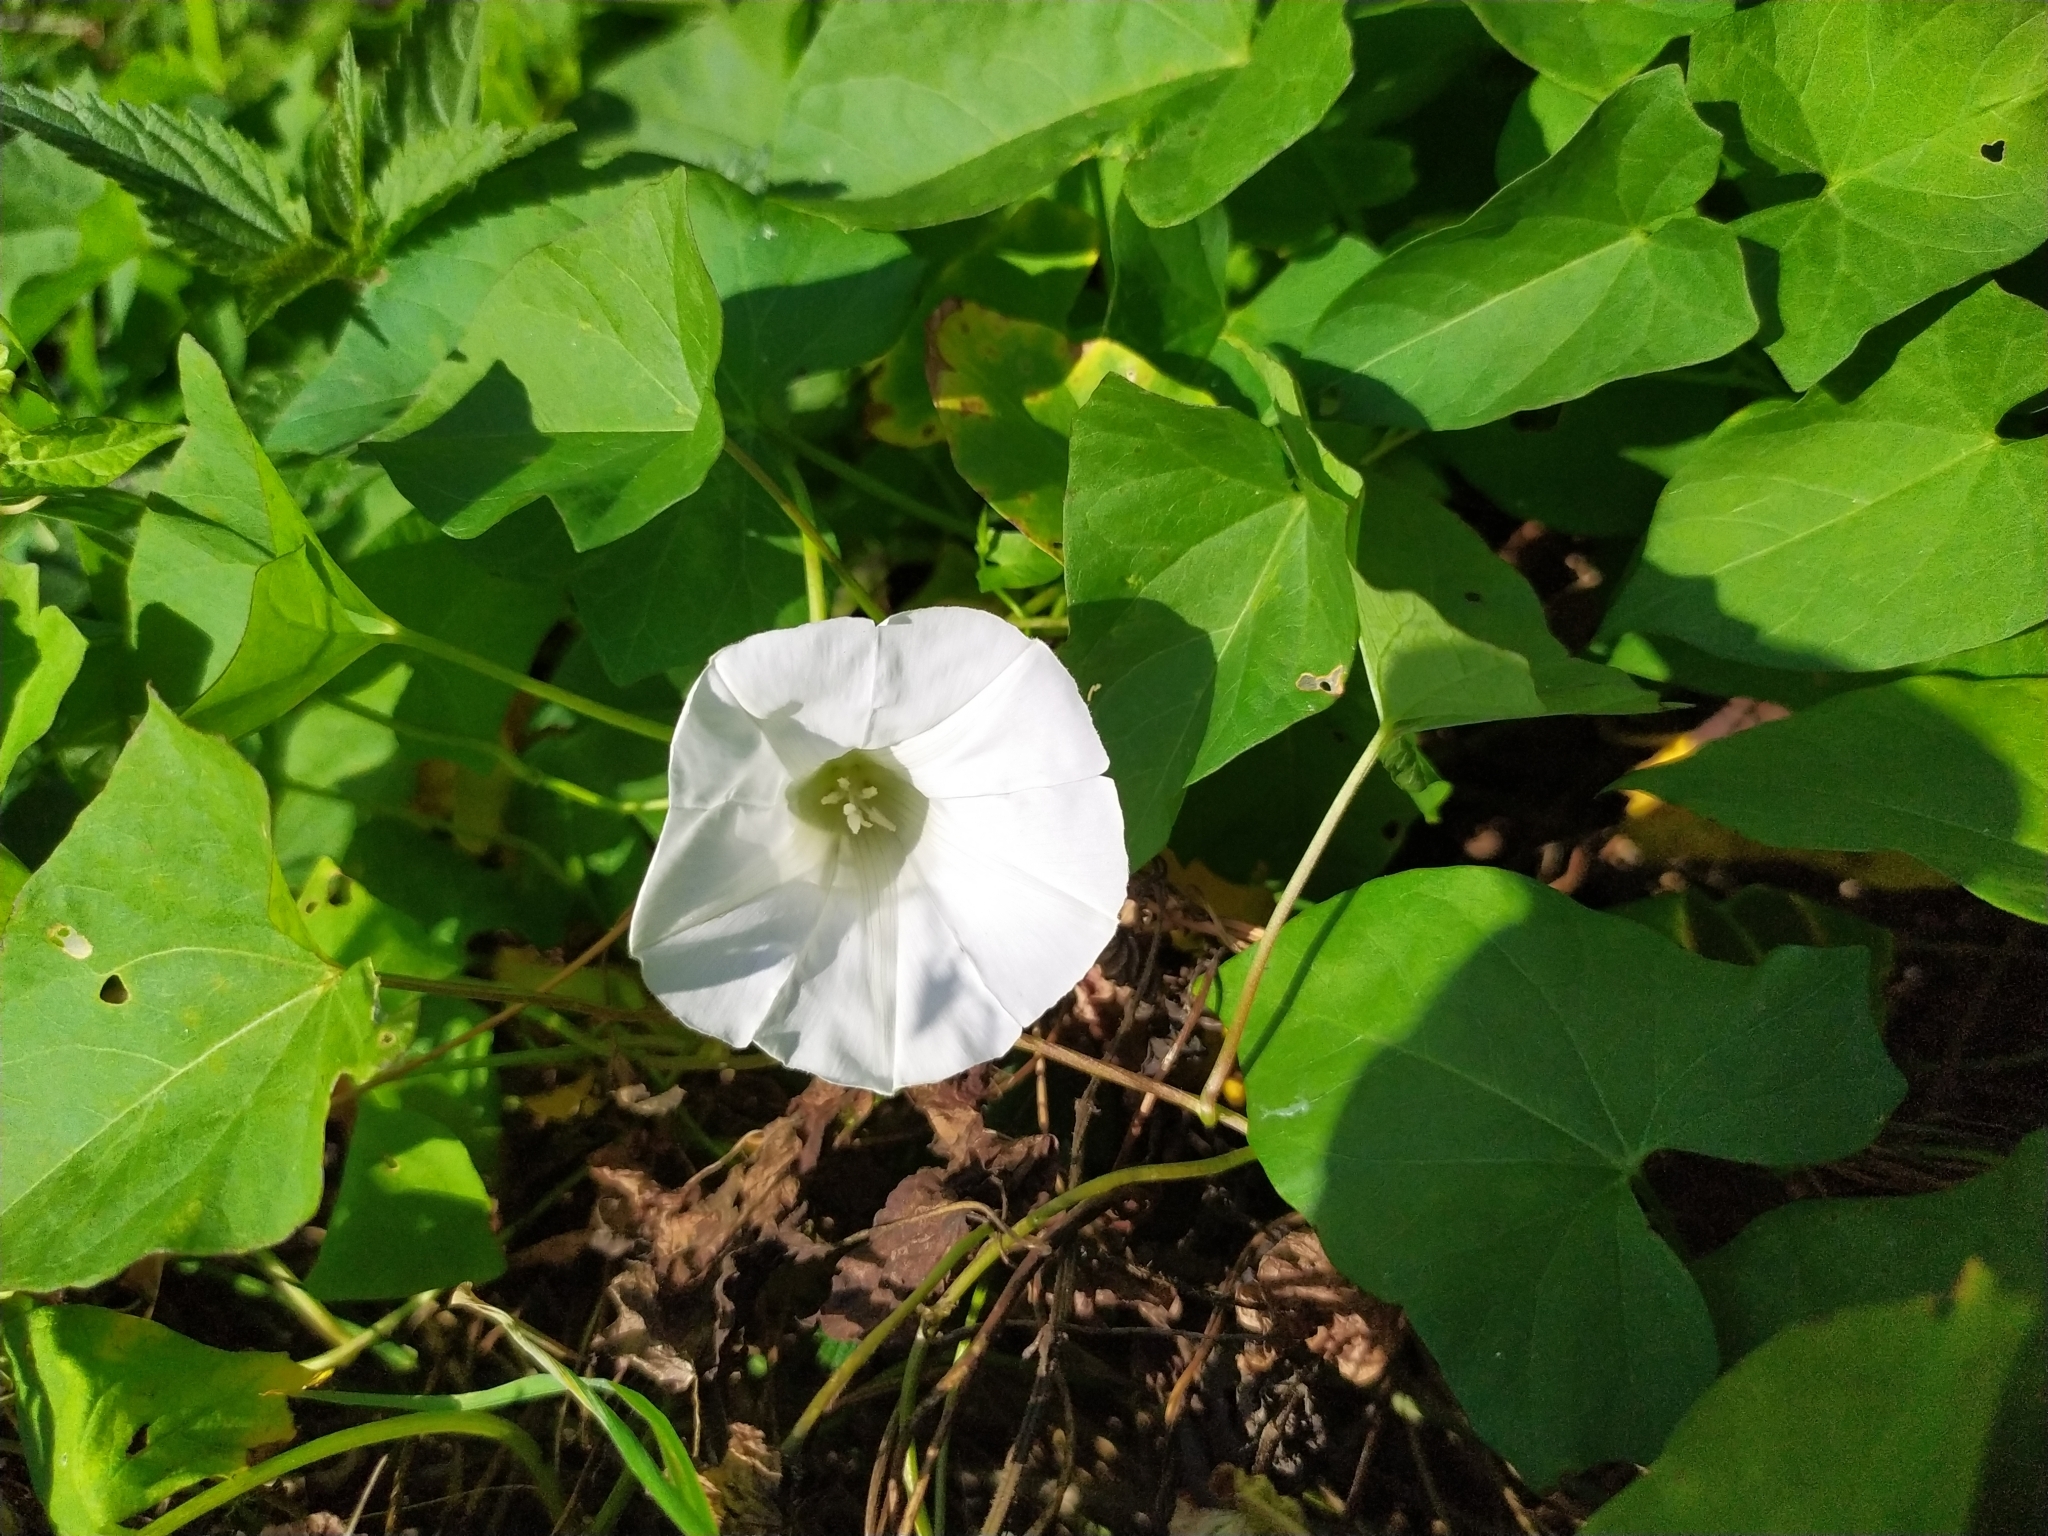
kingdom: Plantae
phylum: Tracheophyta
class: Magnoliopsida
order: Solanales
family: Convolvulaceae
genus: Calystegia
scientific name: Calystegia sepium
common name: Hedge bindweed
